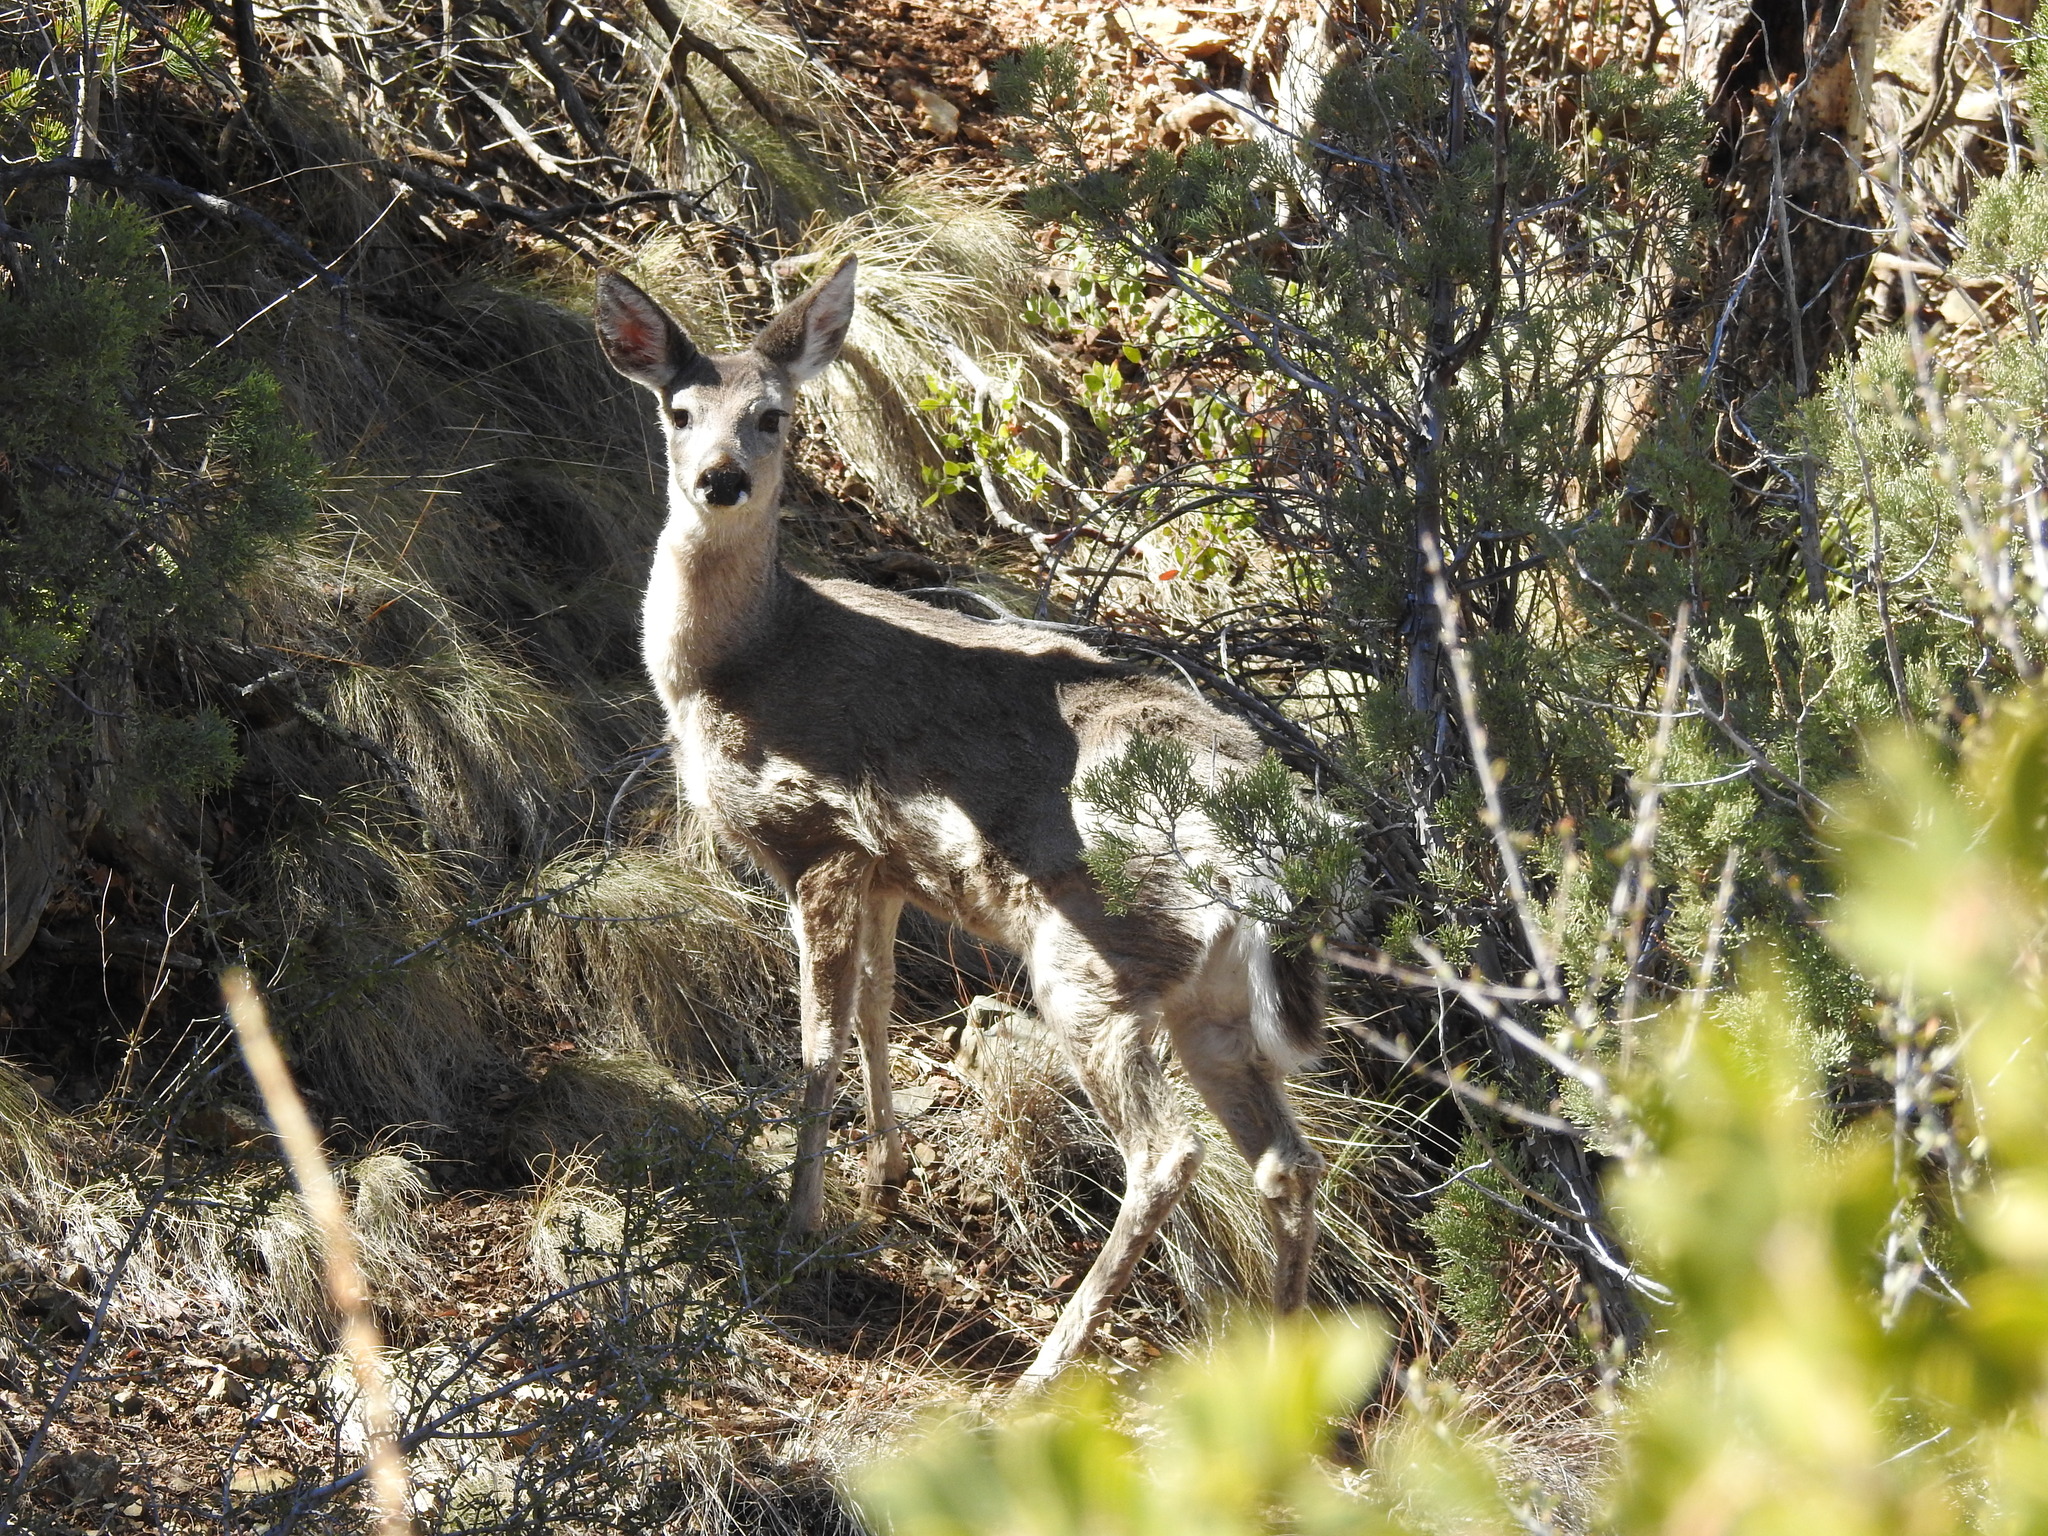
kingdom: Animalia
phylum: Chordata
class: Mammalia
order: Artiodactyla
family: Cervidae
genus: Odocoileus
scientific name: Odocoileus virginianus
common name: White-tailed deer
